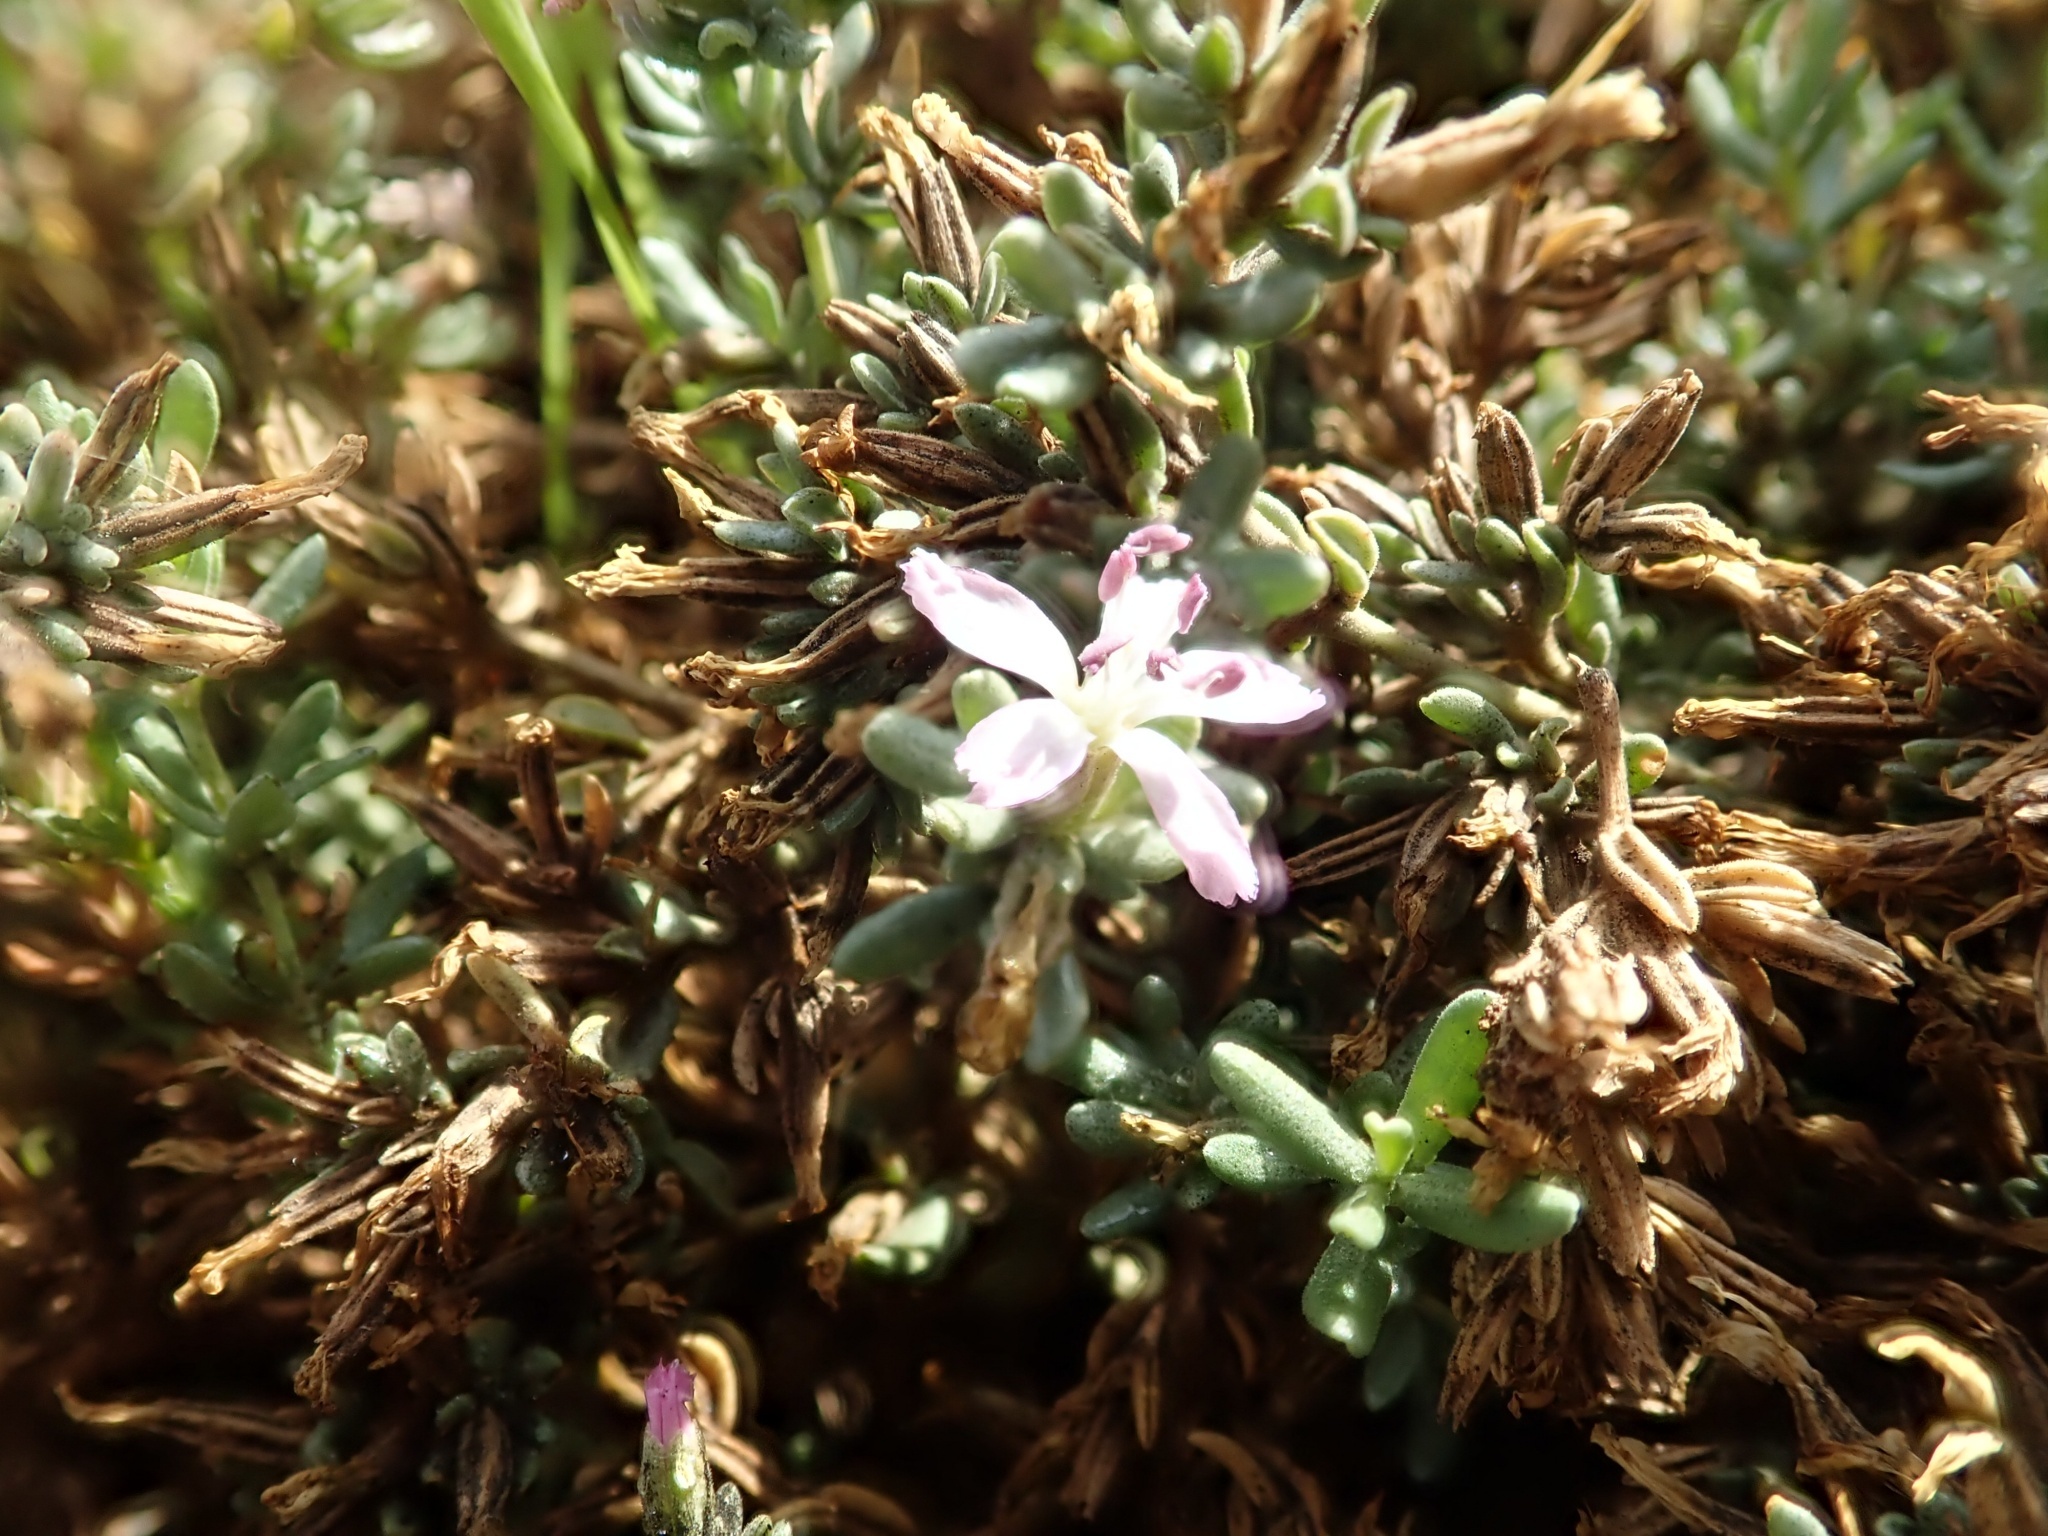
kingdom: Plantae
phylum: Tracheophyta
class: Magnoliopsida
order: Caryophyllales
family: Frankeniaceae
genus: Frankenia
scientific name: Frankenia salina
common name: Alkali seaheath
